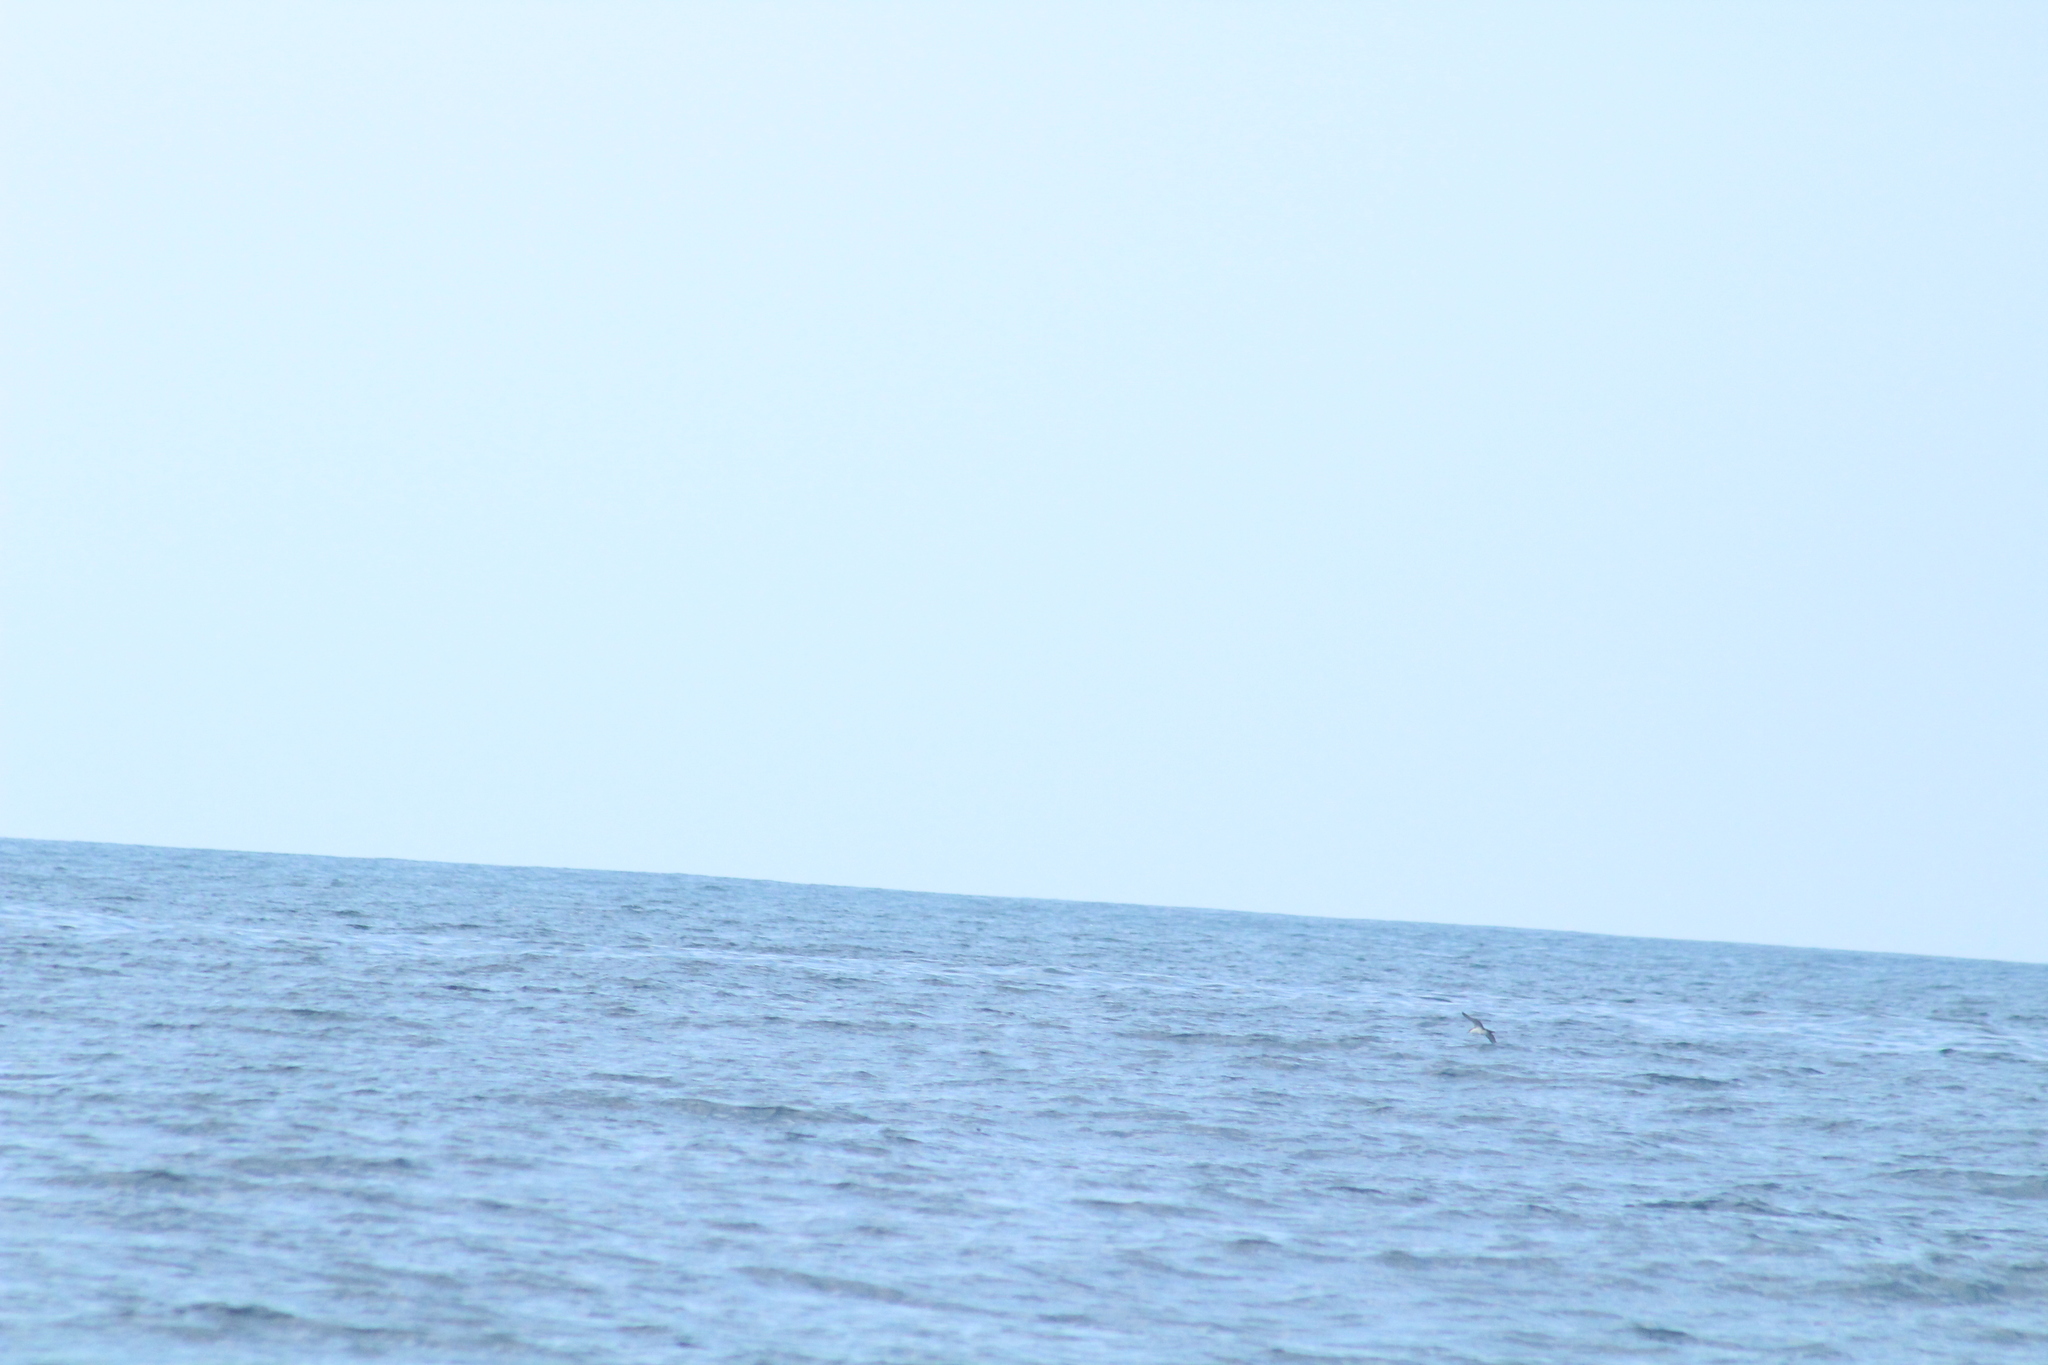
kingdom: Animalia
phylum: Chordata
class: Aves
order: Procellariiformes
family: Procellariidae
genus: Puffinus
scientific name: Puffinus subalaris
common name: Galapagos shearwater
